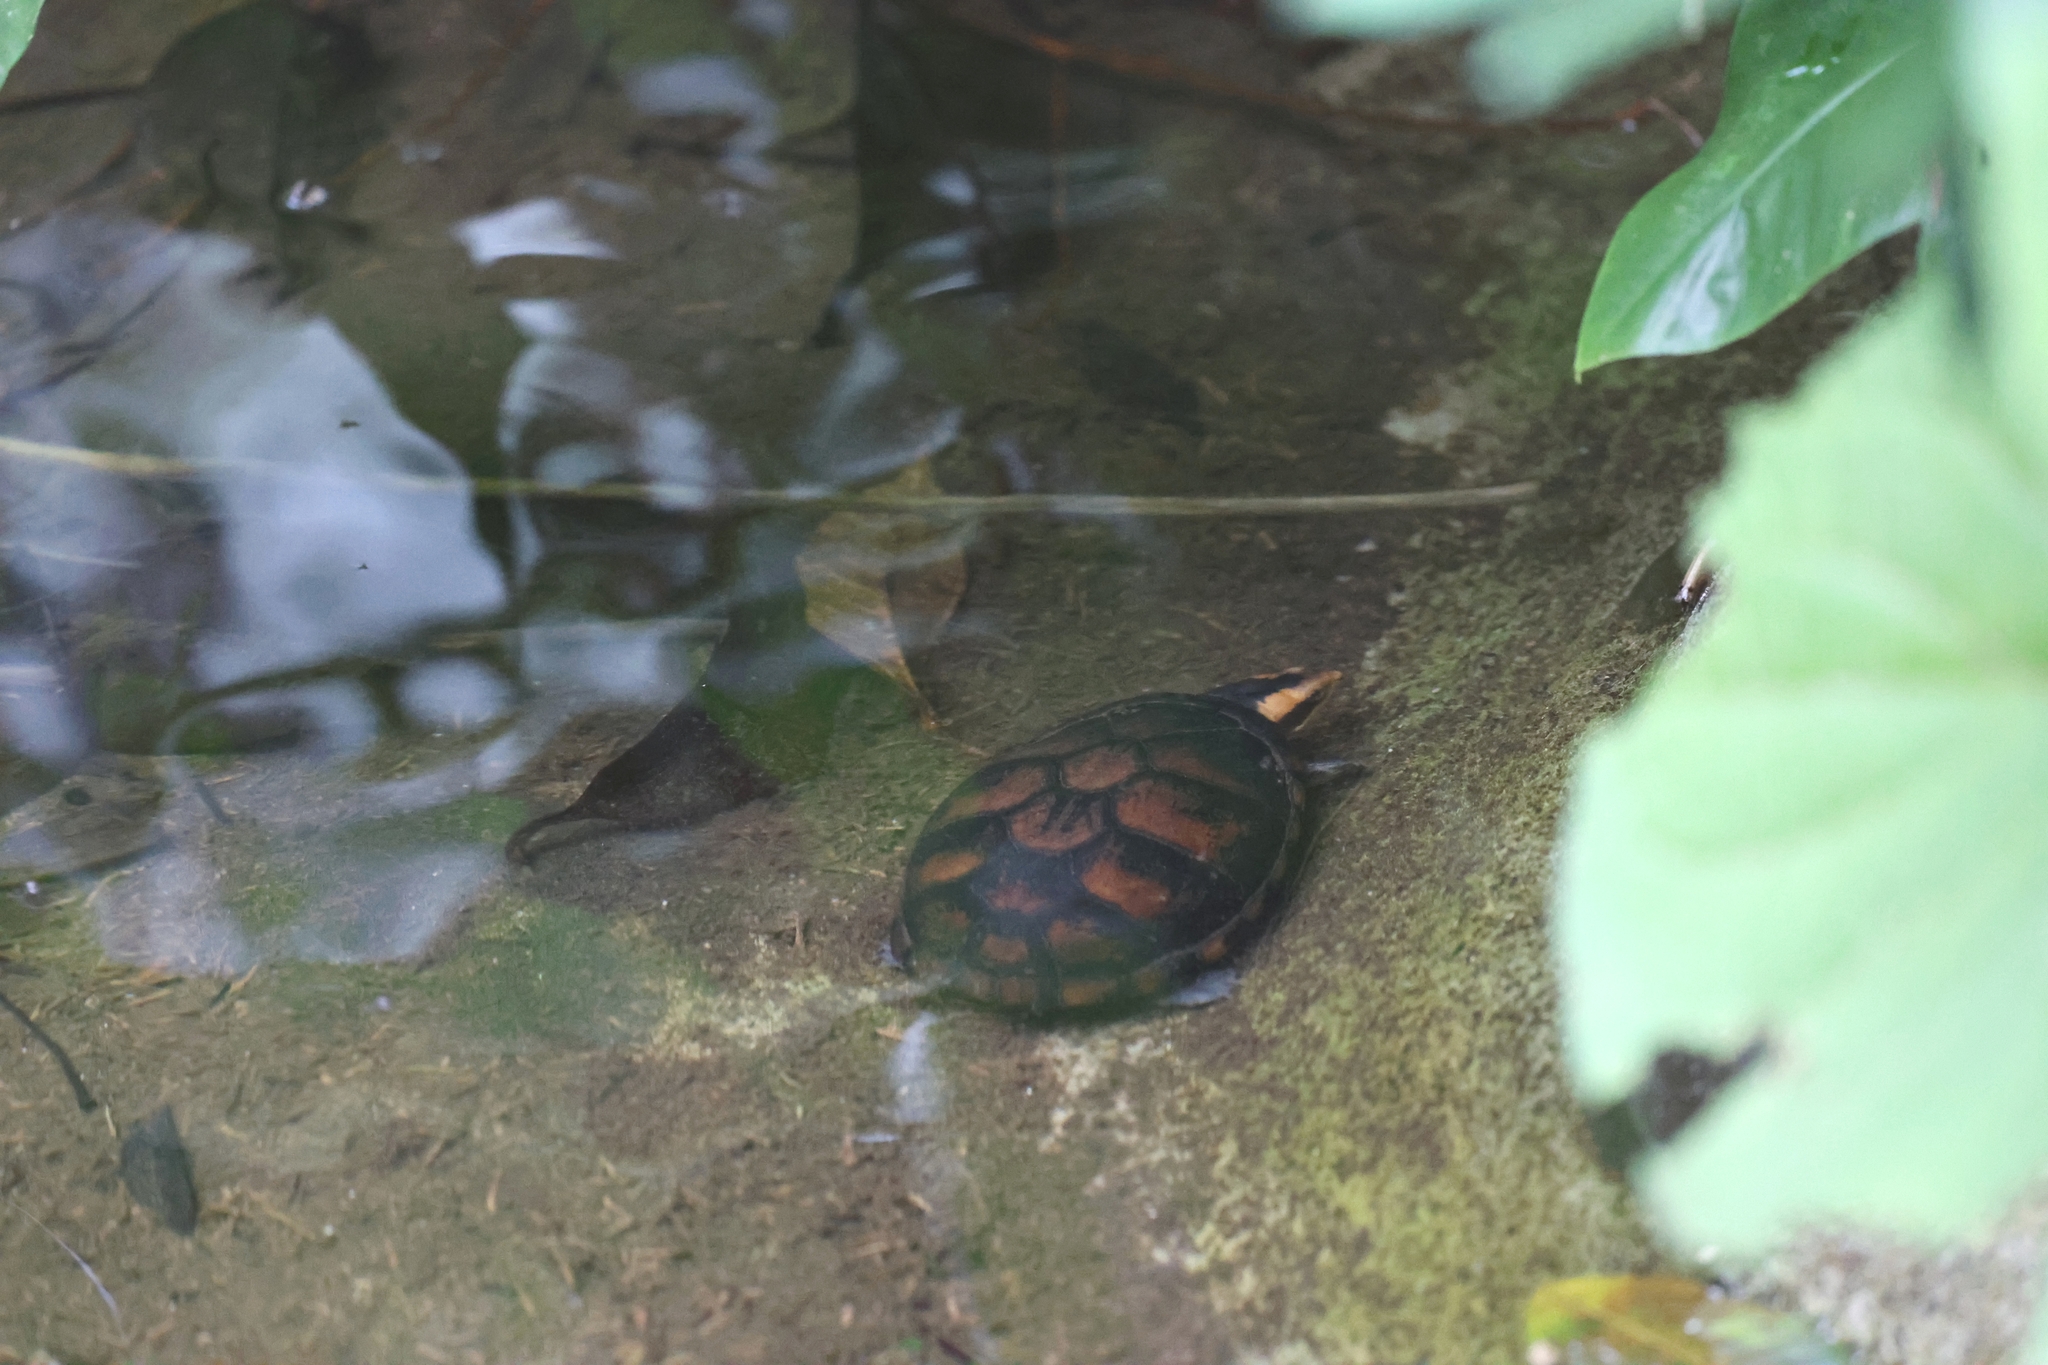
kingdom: Animalia
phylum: Chordata
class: Testudines
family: Kinosternidae
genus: Kinosternon
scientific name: Kinosternon leucostomum
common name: White-lipped mud turtle
